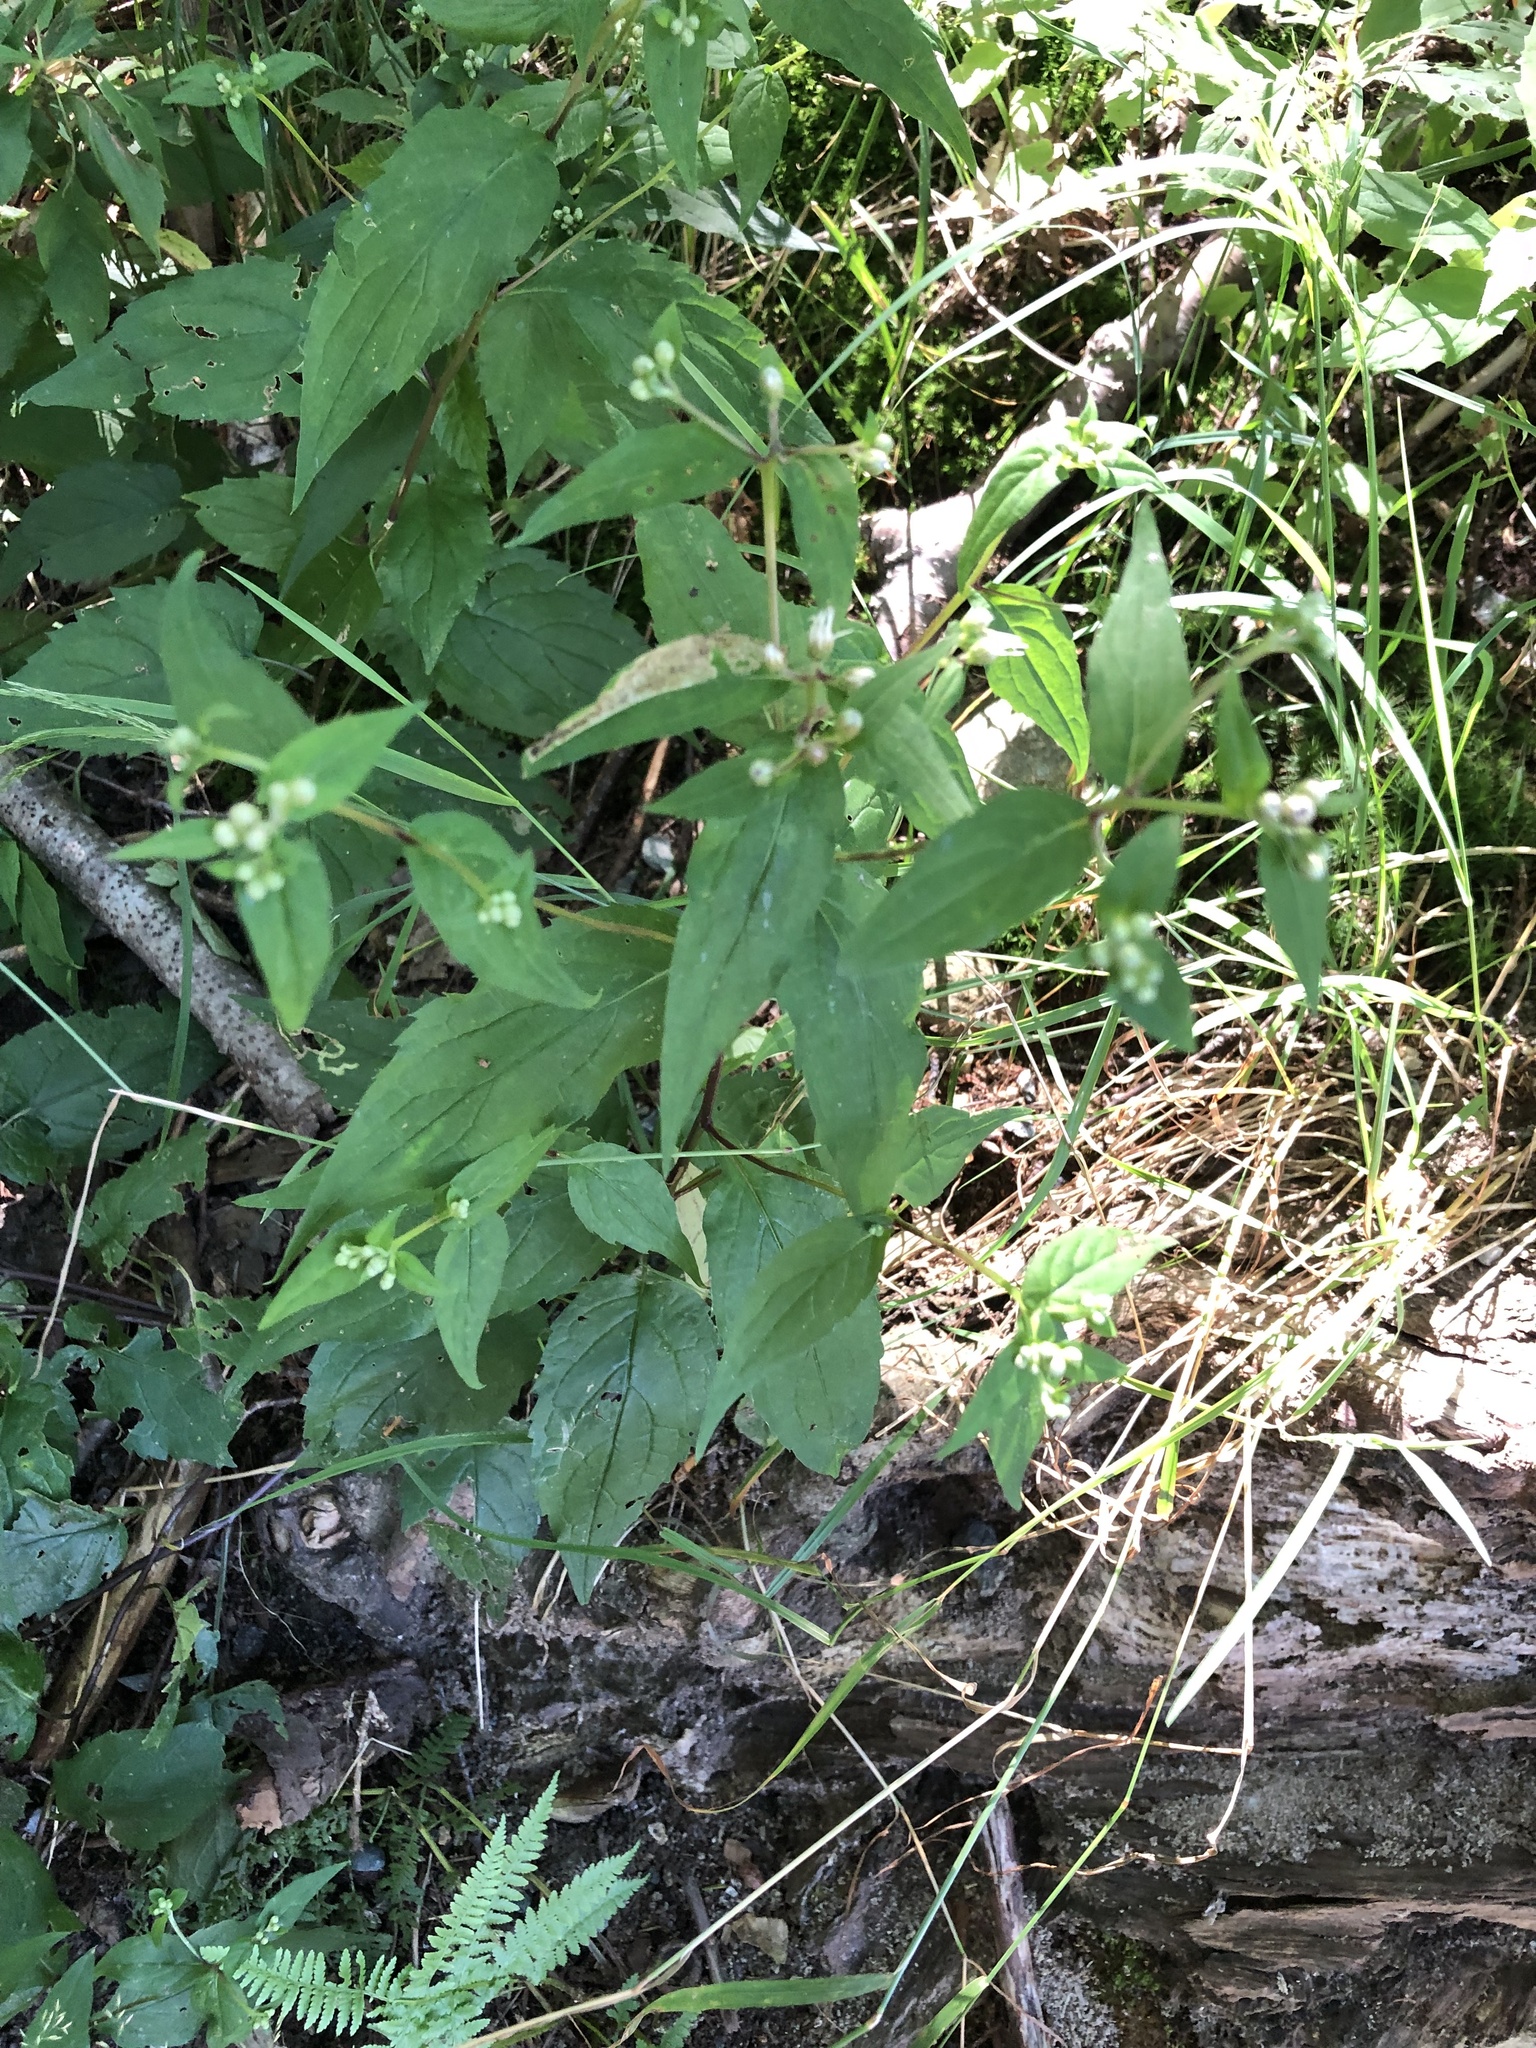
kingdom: Plantae
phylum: Tracheophyta
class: Magnoliopsida
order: Asterales
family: Asteraceae
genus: Eurybia
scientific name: Eurybia divaricata
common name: White wood aster
